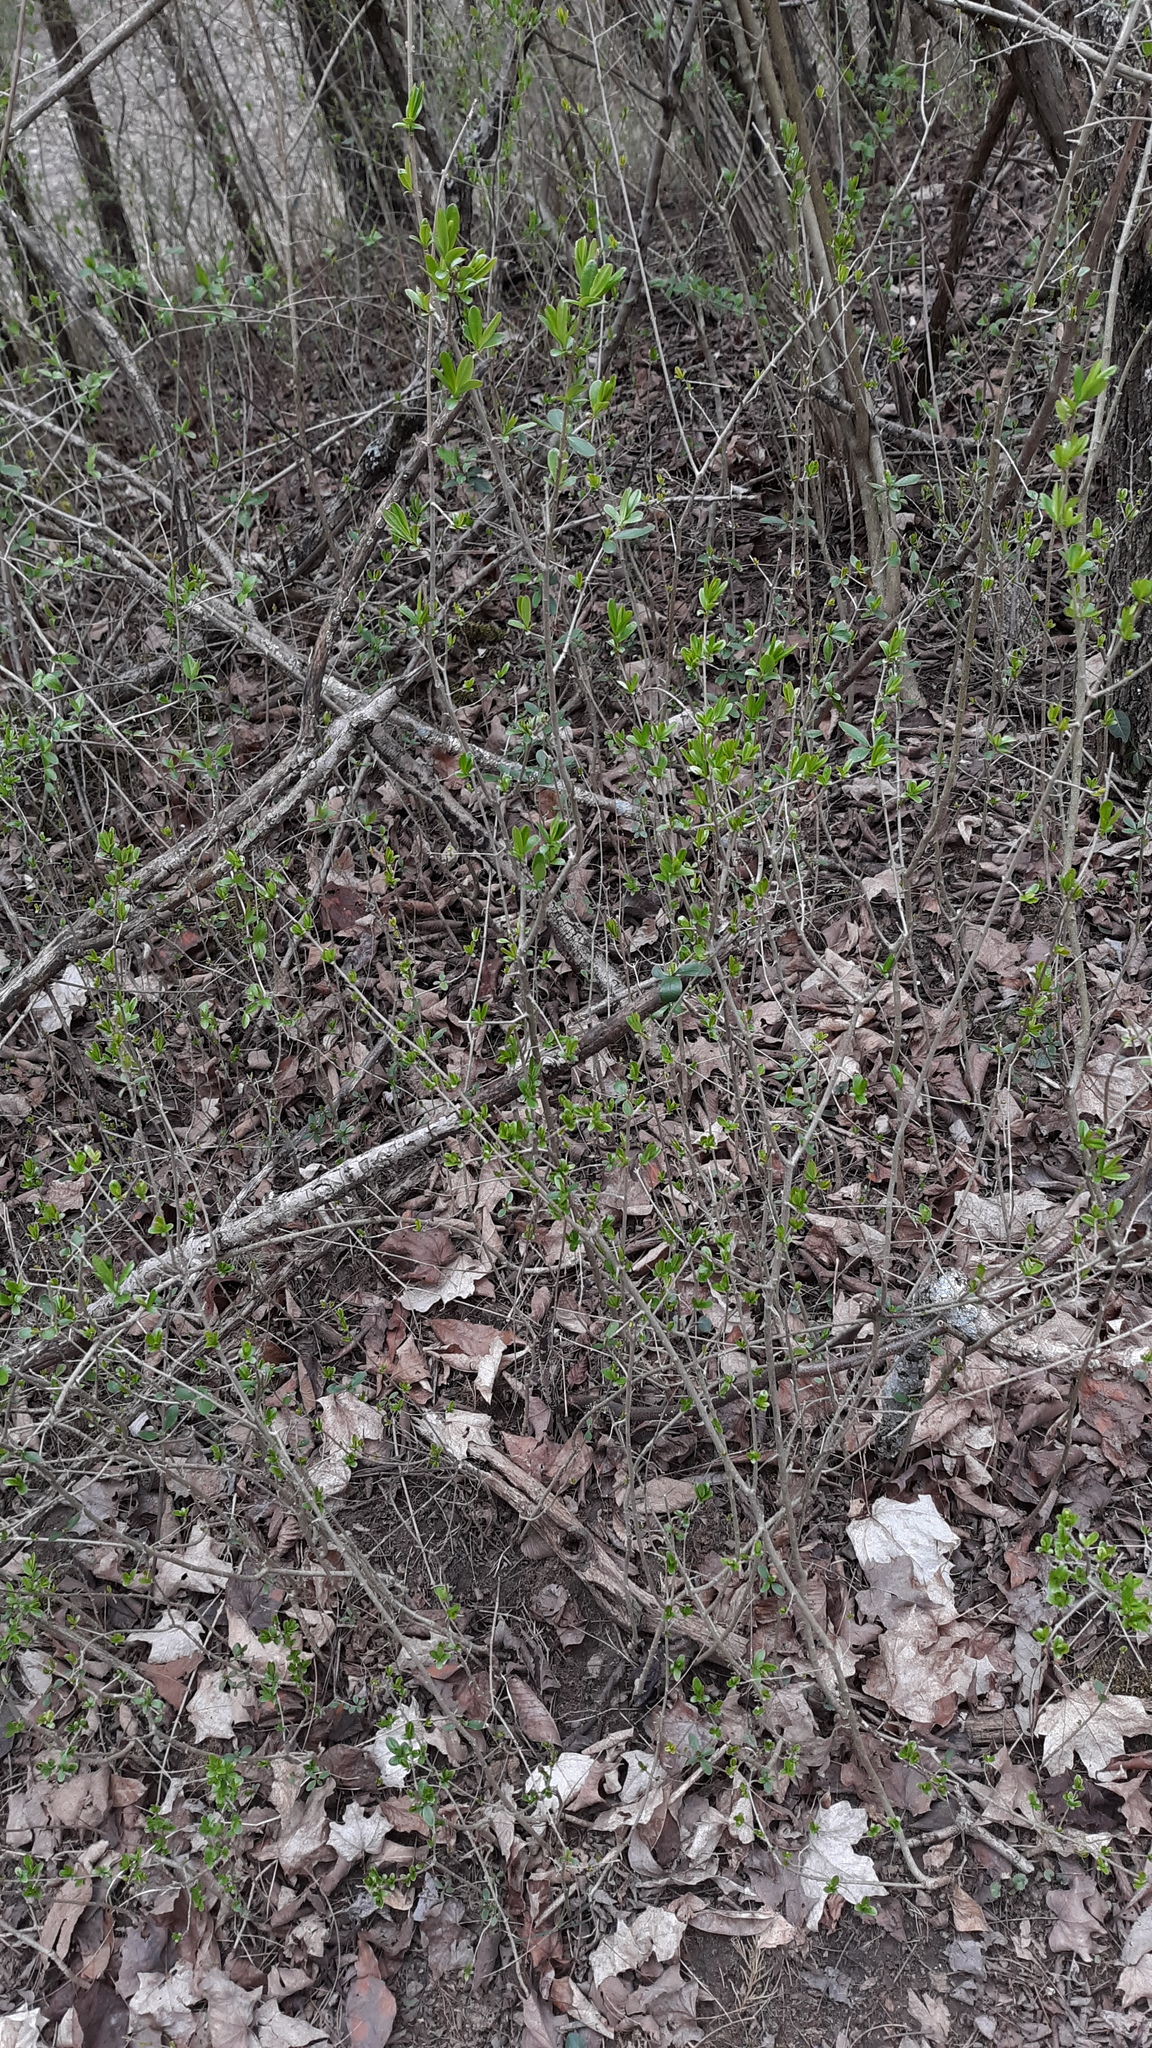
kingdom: Plantae
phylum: Tracheophyta
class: Magnoliopsida
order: Lamiales
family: Oleaceae
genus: Ligustrum
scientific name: Ligustrum
